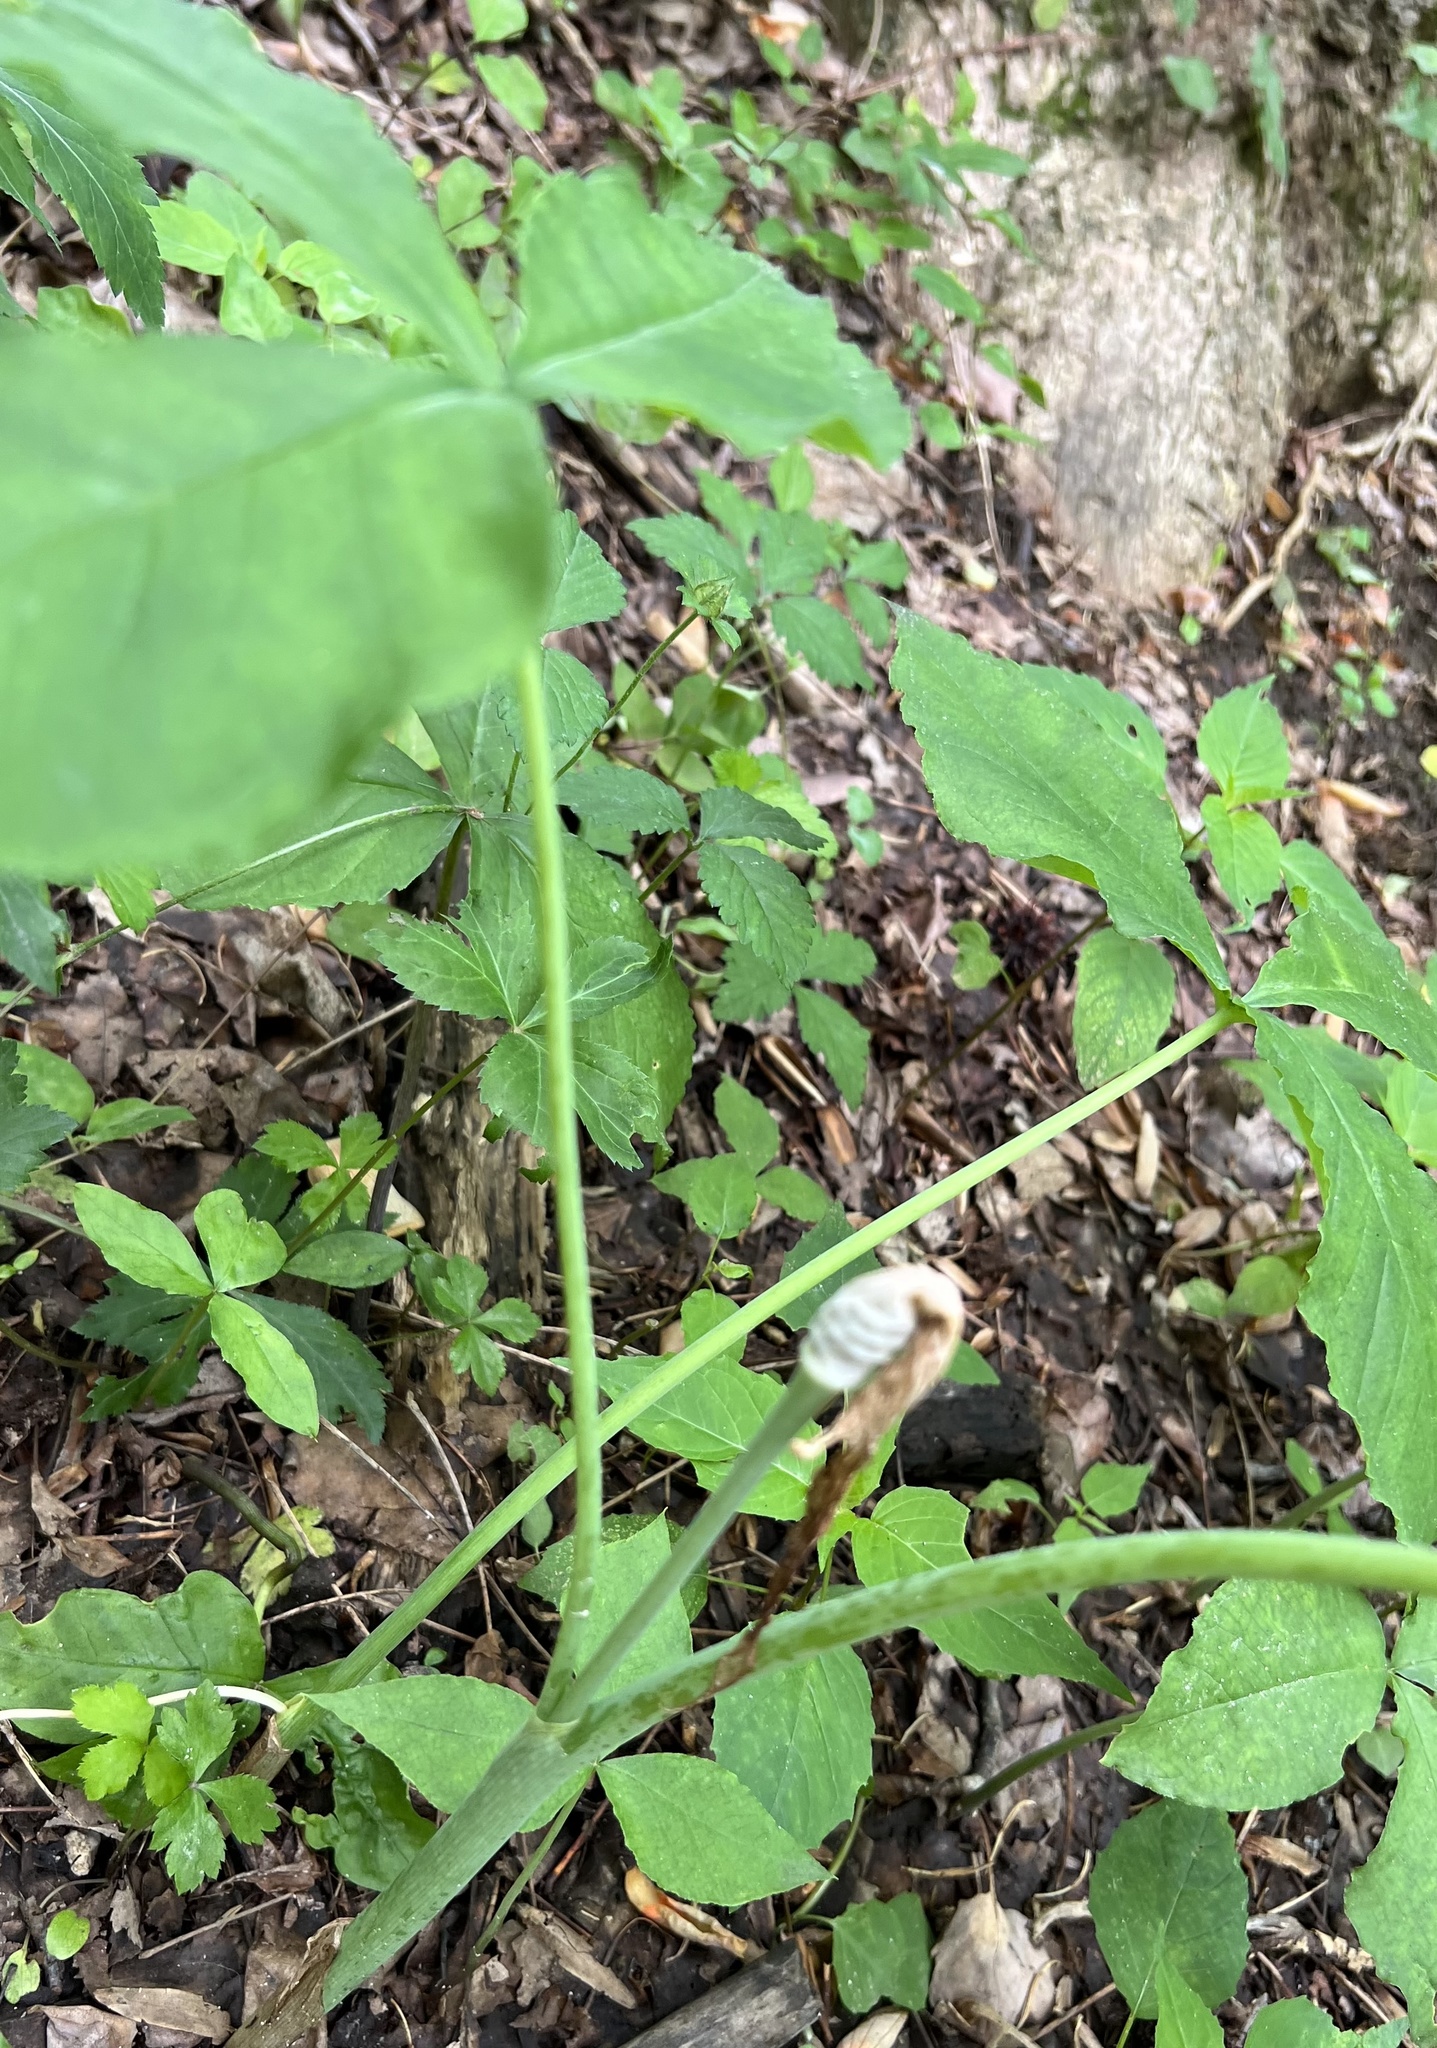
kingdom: Plantae
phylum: Tracheophyta
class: Liliopsida
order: Alismatales
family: Araceae
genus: Arisaema
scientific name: Arisaema triphyllum
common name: Jack-in-the-pulpit
